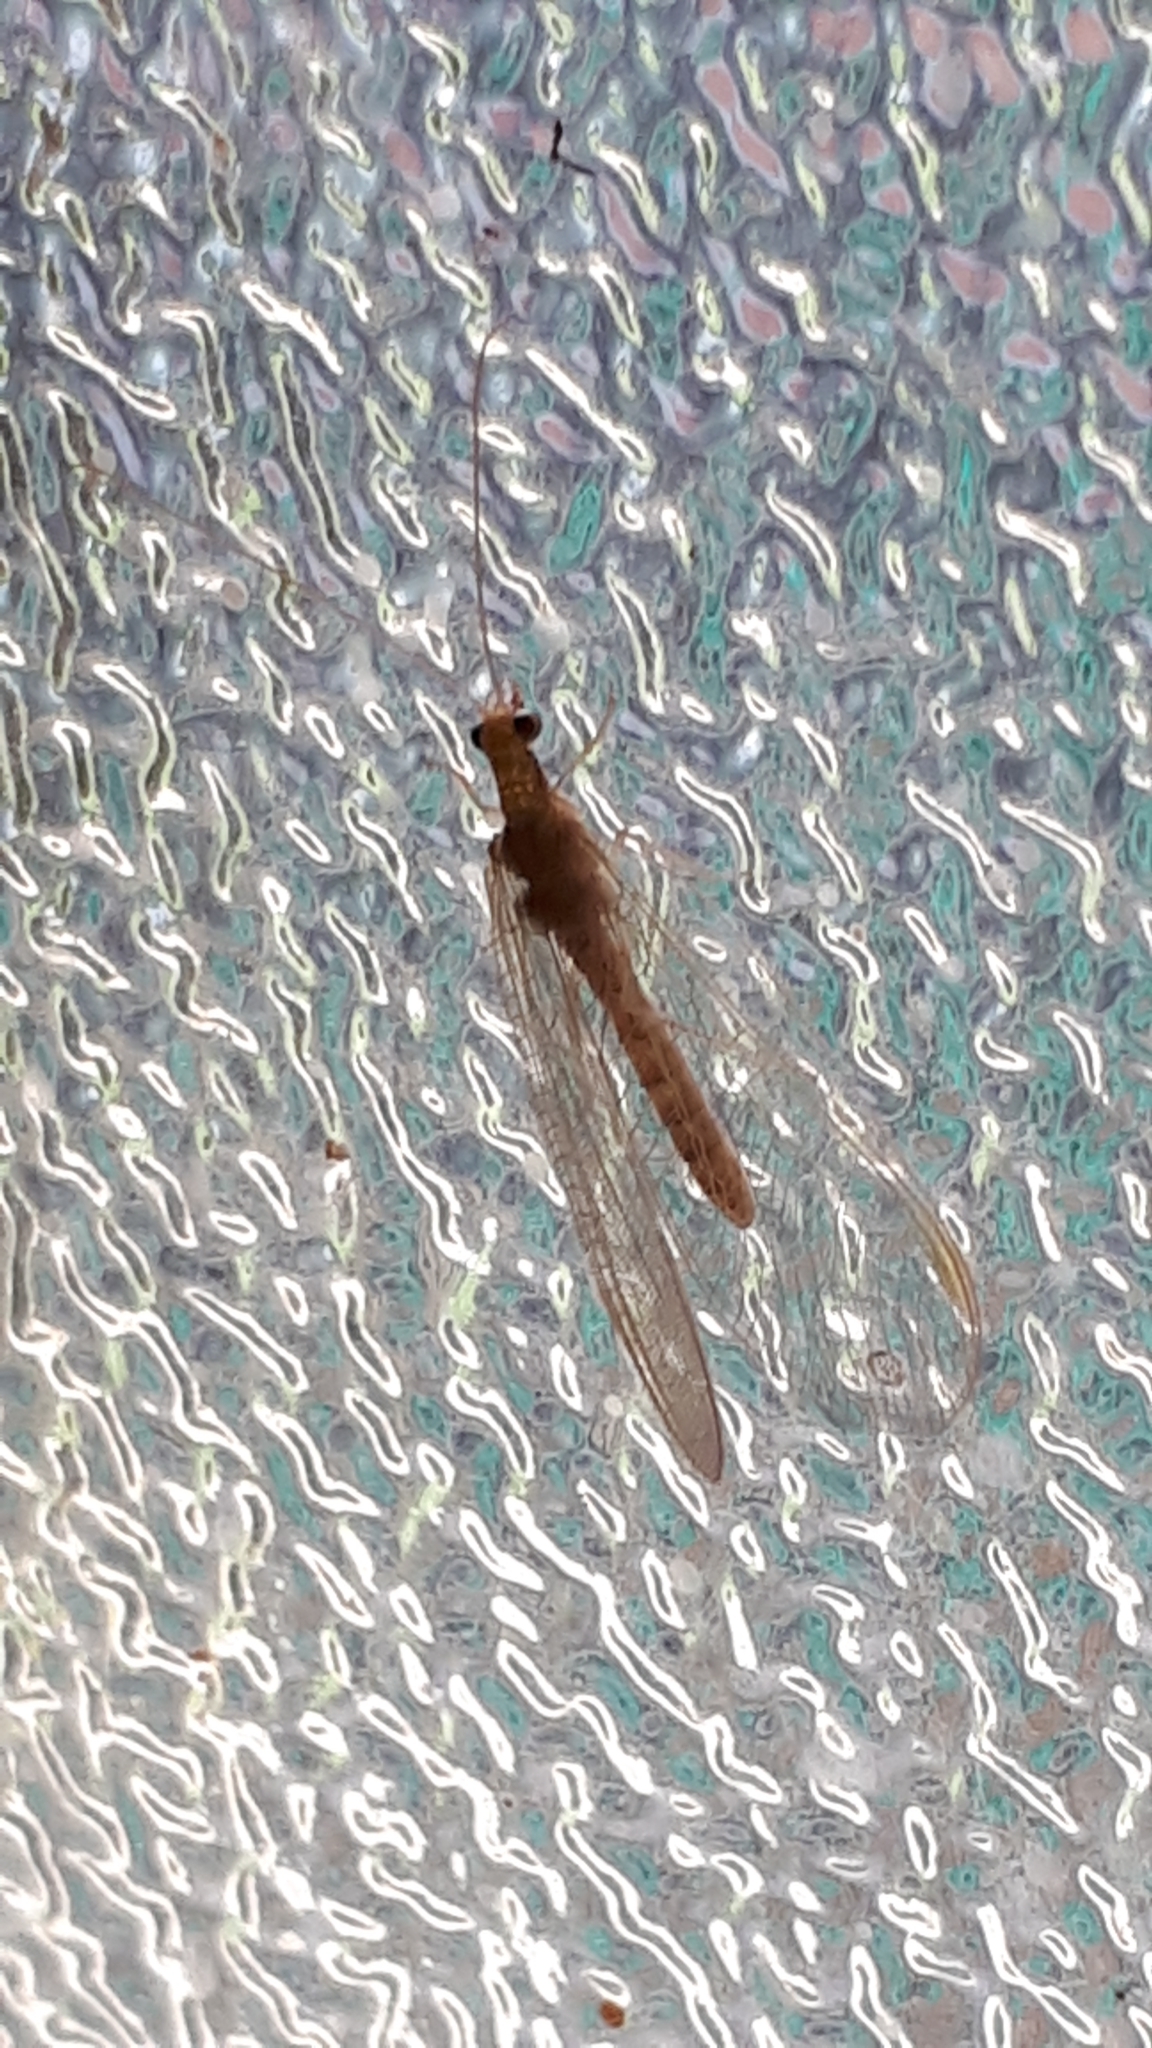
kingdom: Animalia
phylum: Arthropoda
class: Insecta
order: Neuroptera
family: Chrysopidae
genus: Chrysoperla
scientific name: Chrysoperla
